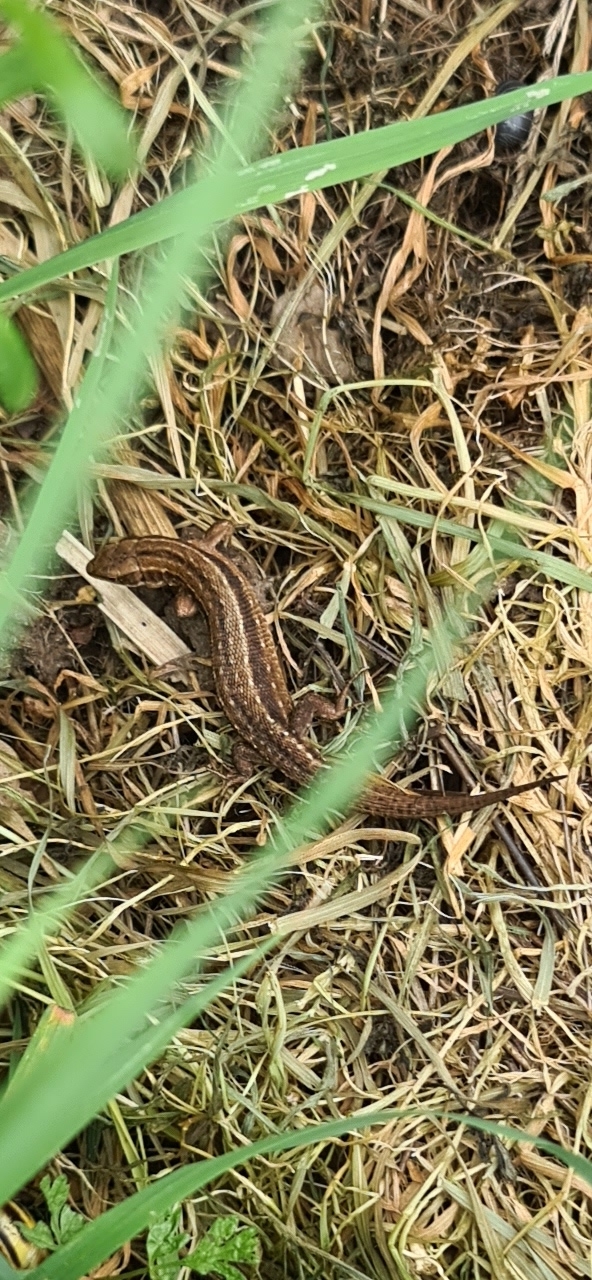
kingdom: Animalia
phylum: Chordata
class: Squamata
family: Lacertidae
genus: Zootoca
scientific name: Zootoca vivipara
